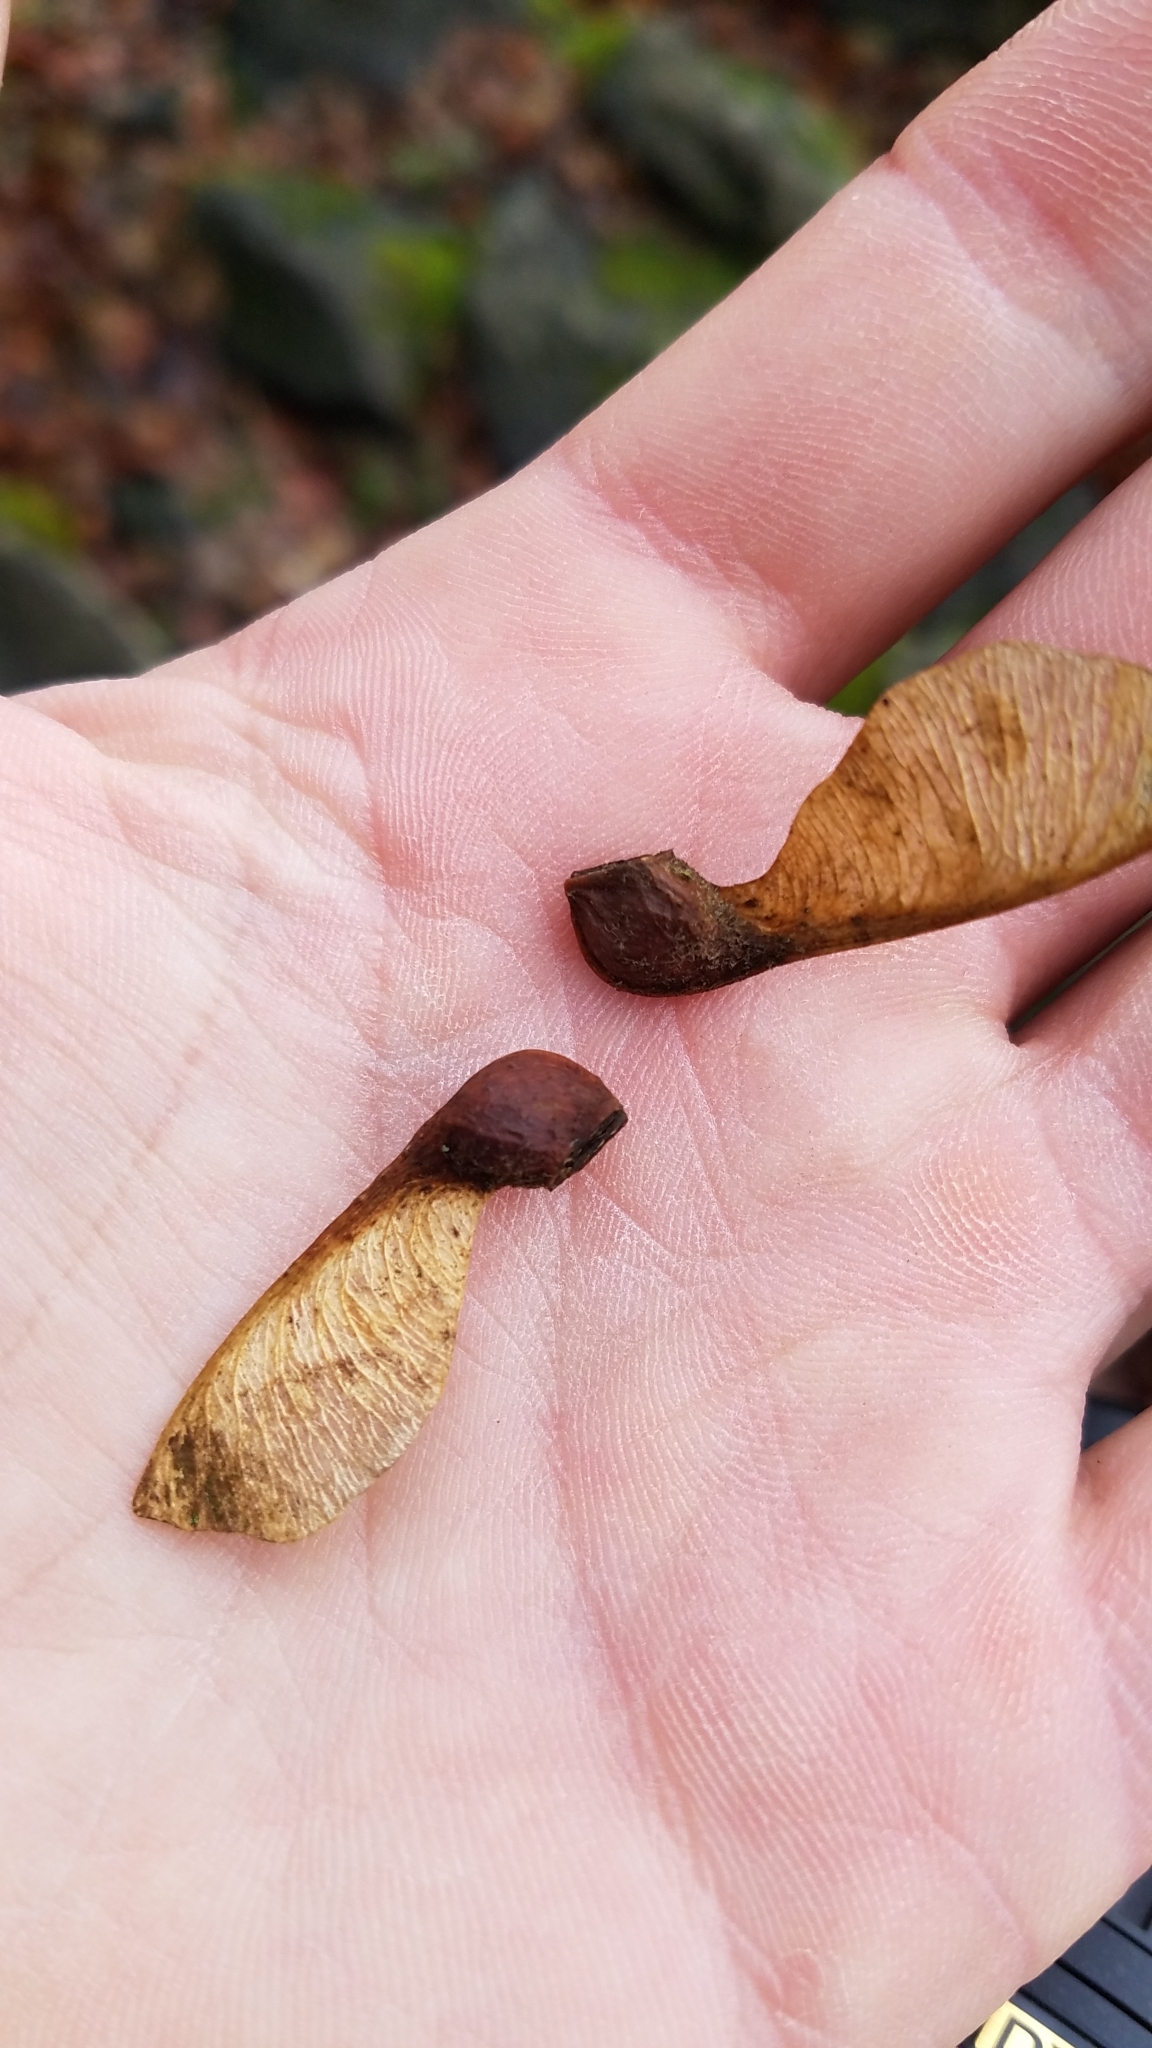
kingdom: Plantae
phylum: Tracheophyta
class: Magnoliopsida
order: Sapindales
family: Sapindaceae
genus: Acer
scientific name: Acer pseudoplatanus
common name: Sycamore
